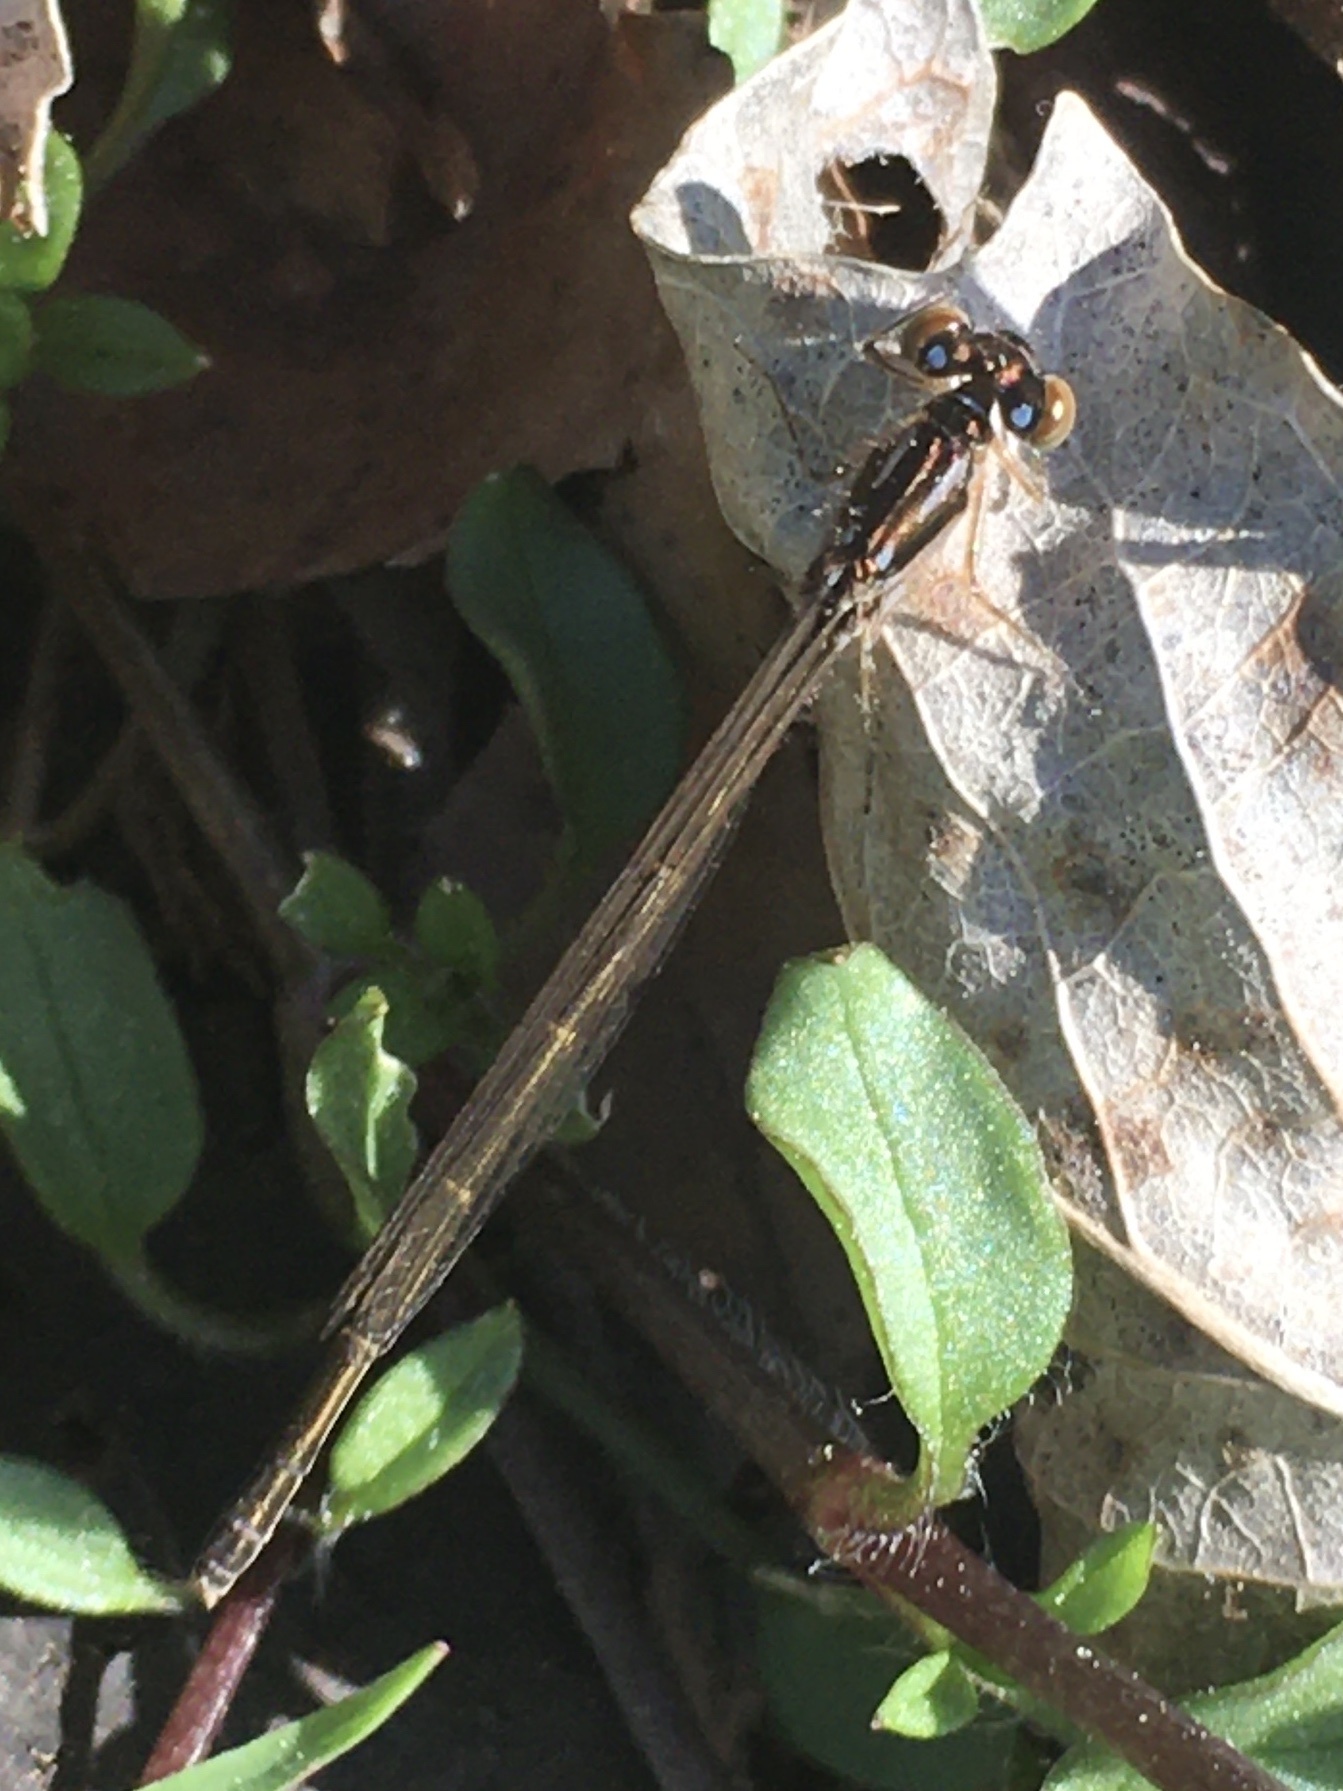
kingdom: Animalia
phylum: Arthropoda
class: Insecta
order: Odonata
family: Coenagrionidae
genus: Ischnura
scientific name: Ischnura posita
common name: Fragile forktail
